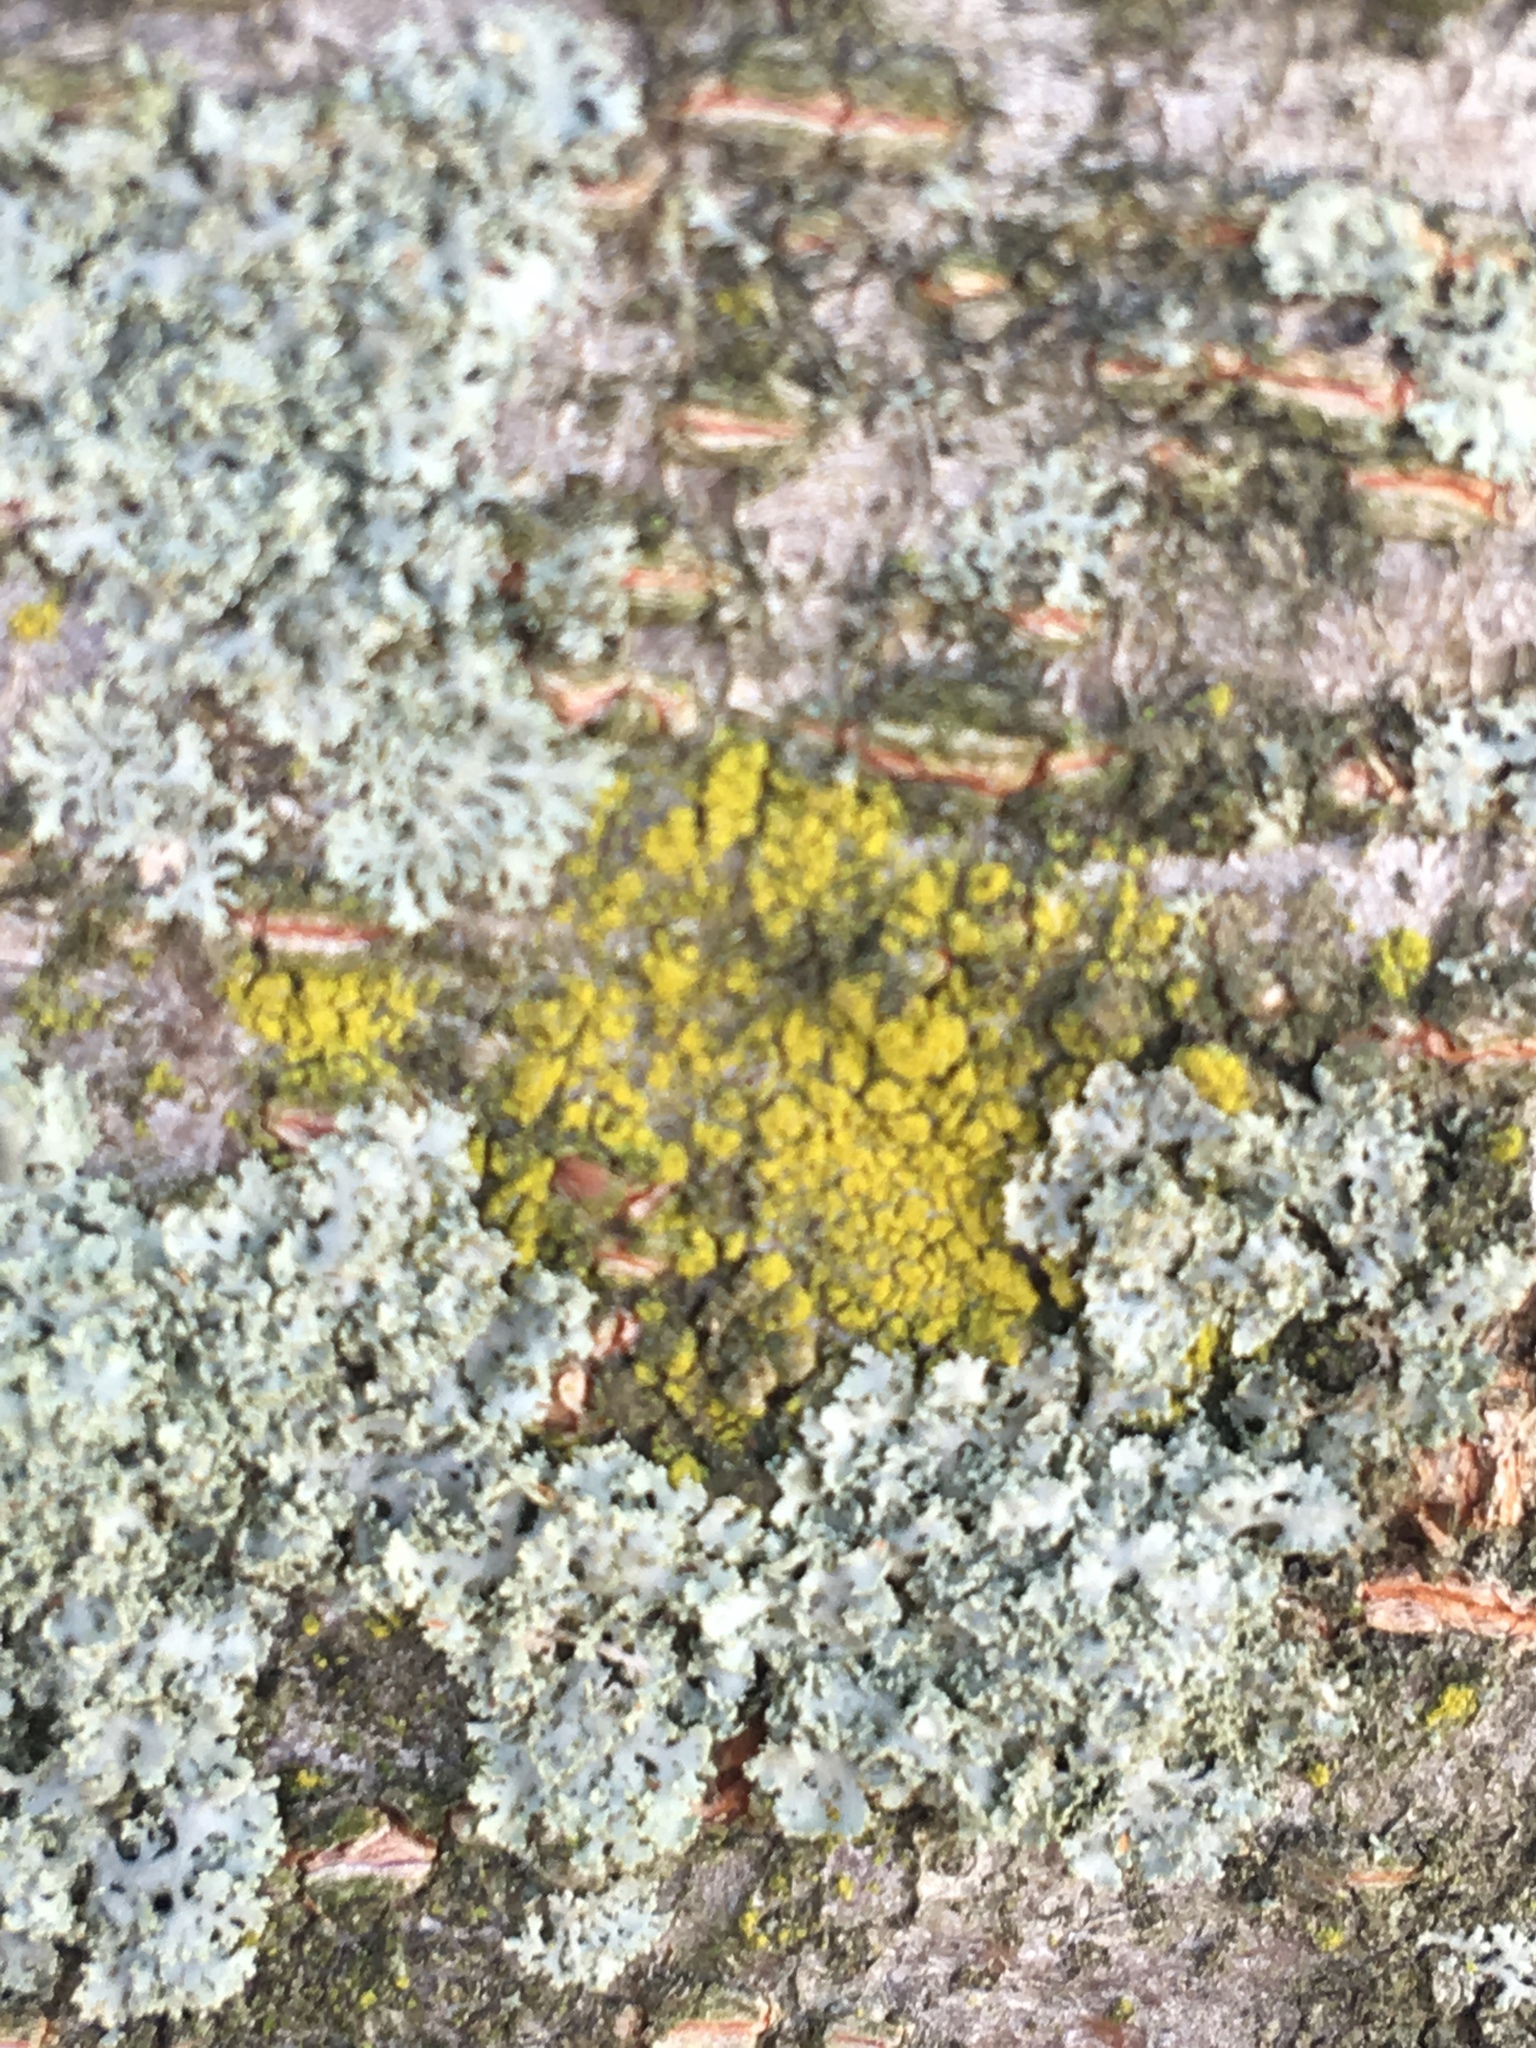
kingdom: Fungi
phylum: Ascomycota
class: Candelariomycetes
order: Candelariales
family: Candelariaceae
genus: Candelaria
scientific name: Candelaria concolor
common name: Candleflame lichen
